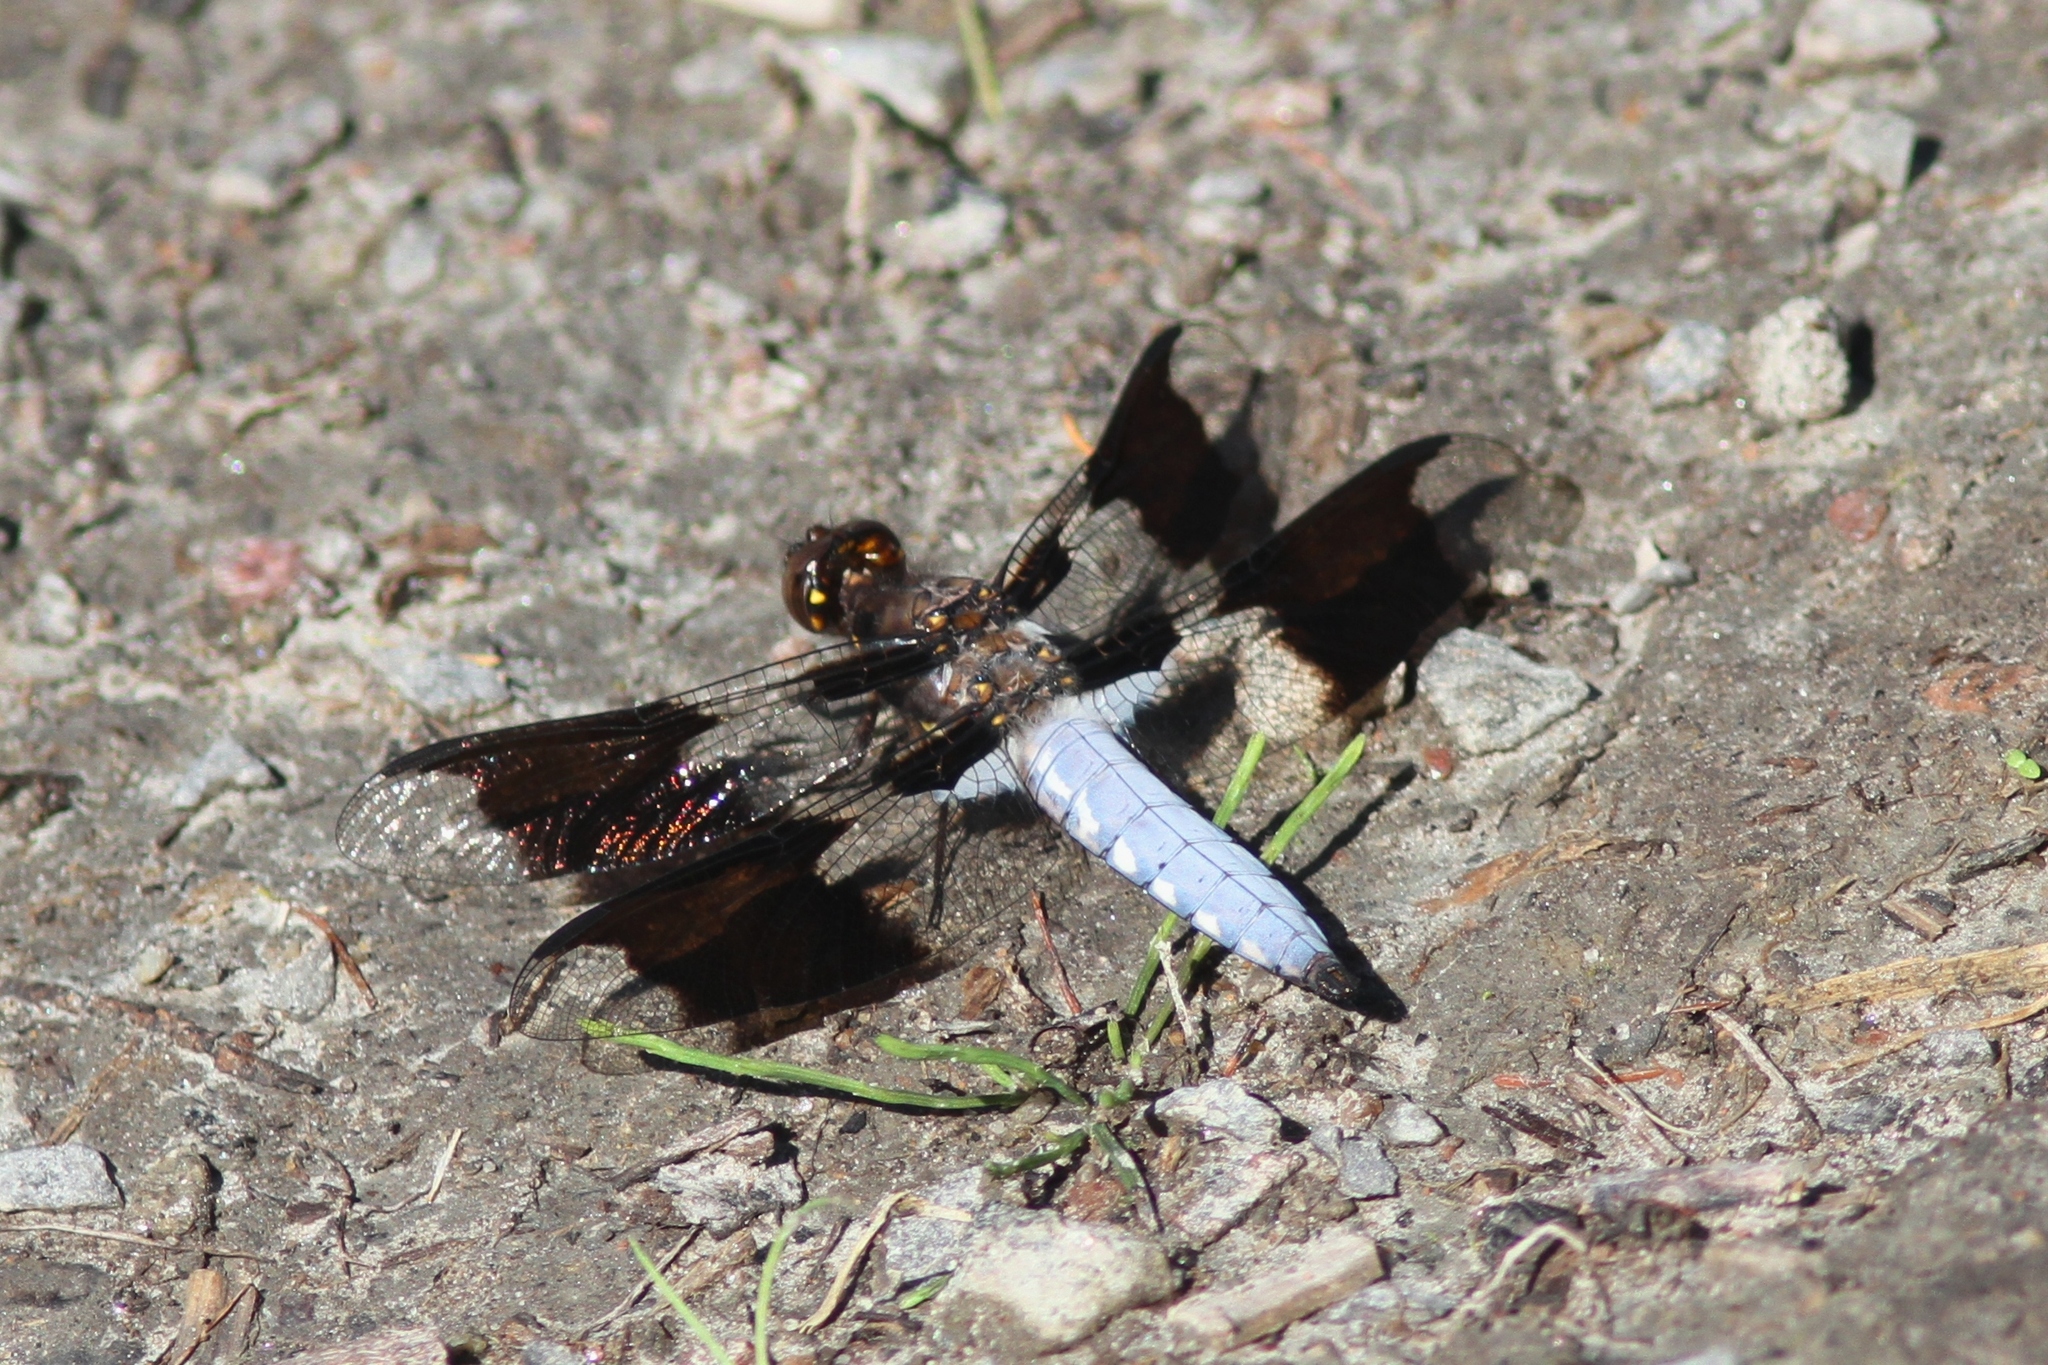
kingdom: Animalia
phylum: Arthropoda
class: Insecta
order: Odonata
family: Libellulidae
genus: Plathemis
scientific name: Plathemis lydia
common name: Common whitetail
